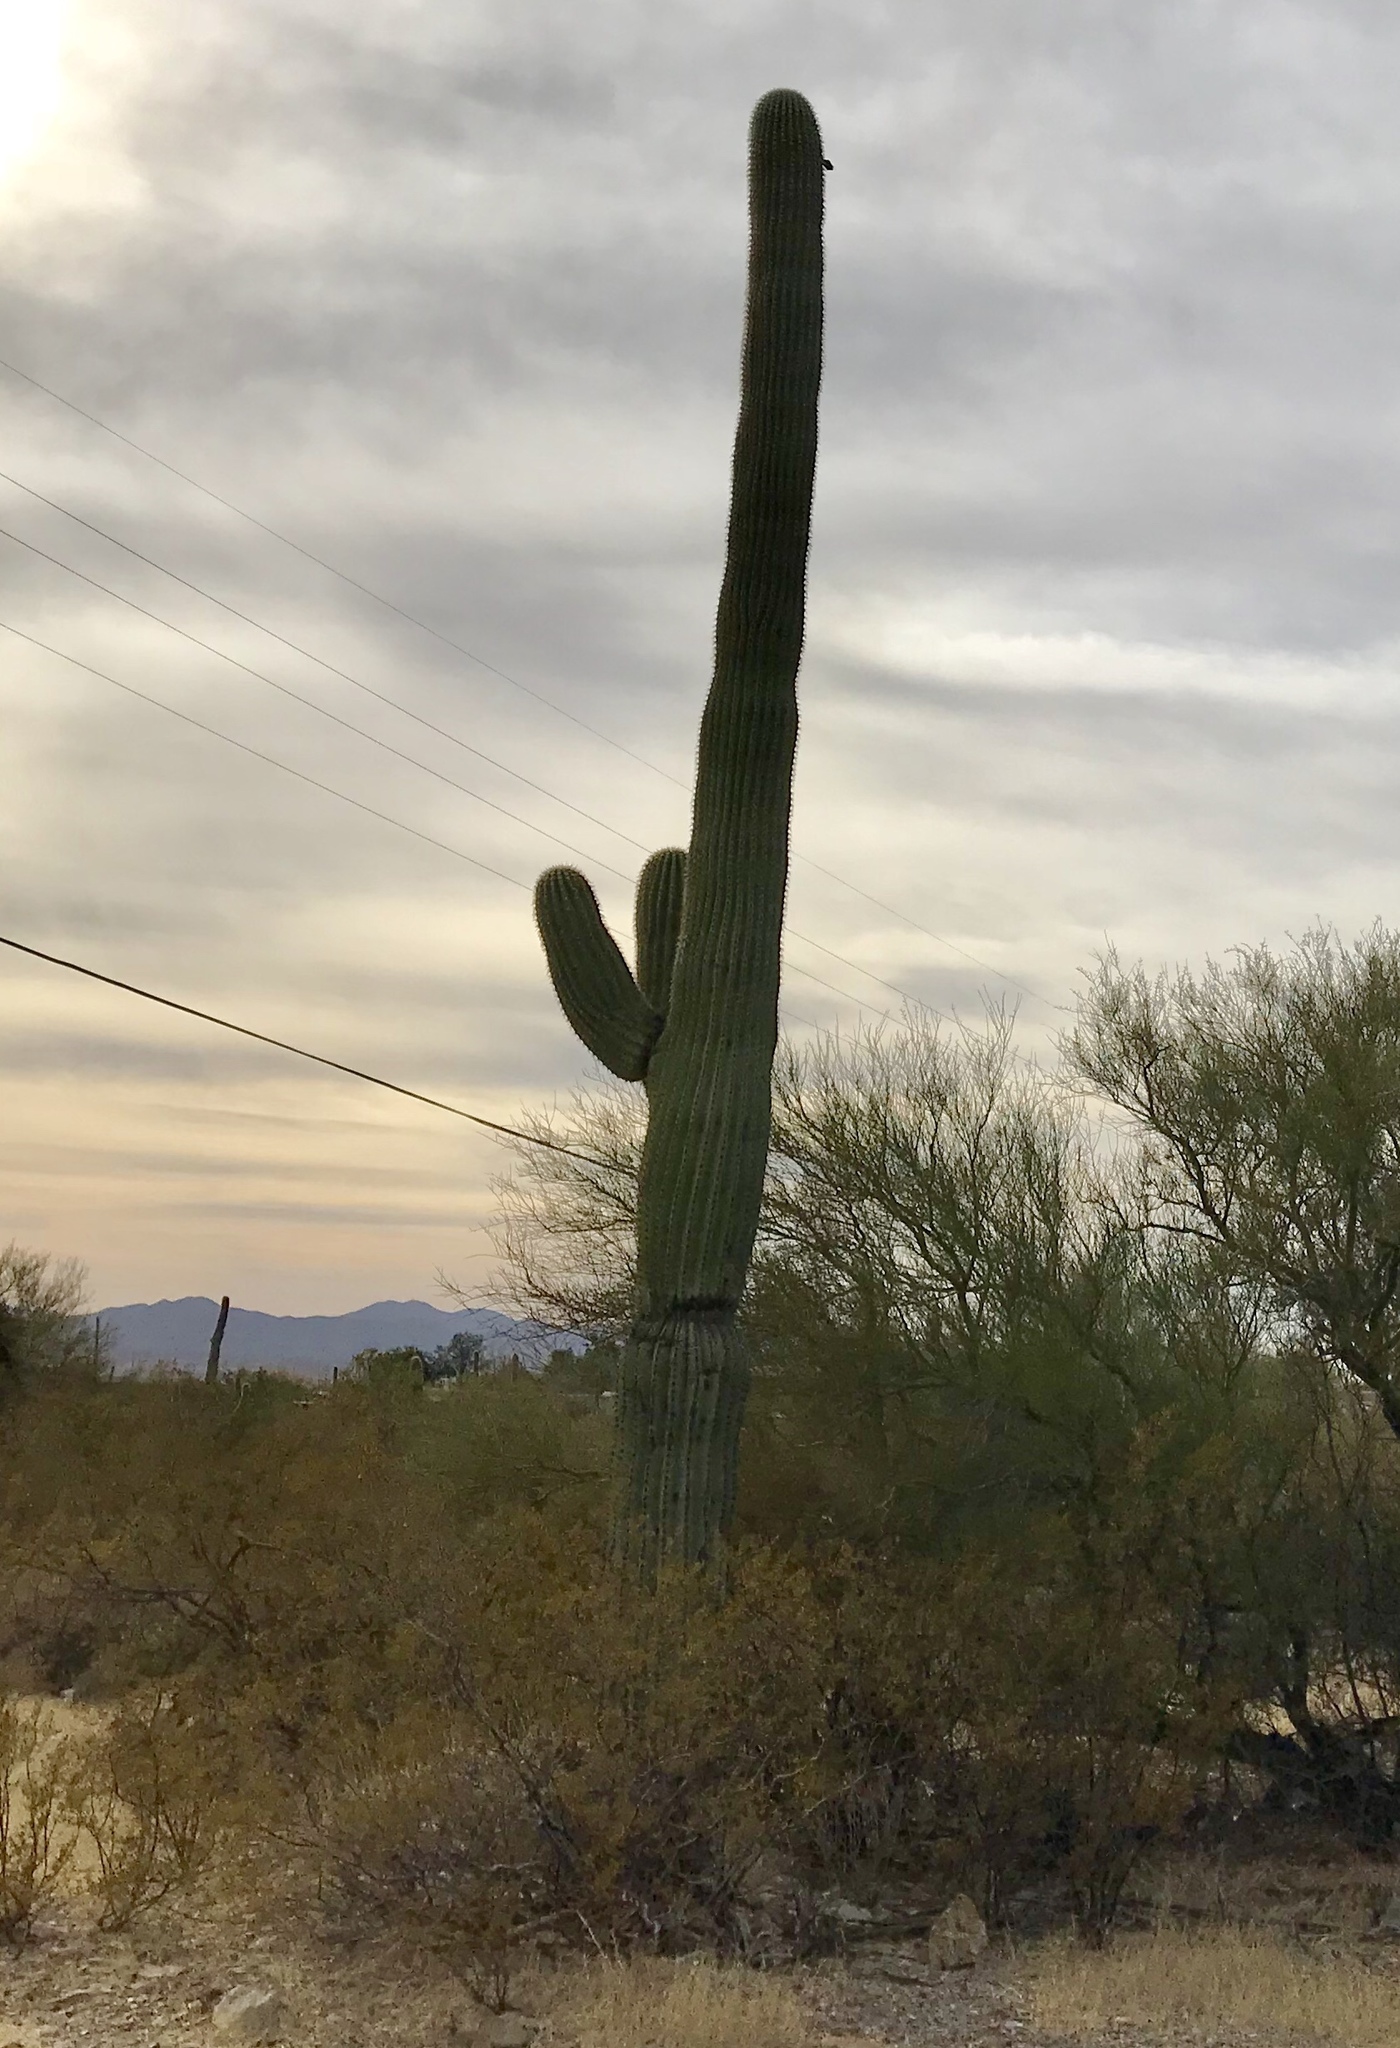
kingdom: Plantae
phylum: Tracheophyta
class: Magnoliopsida
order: Caryophyllales
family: Cactaceae
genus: Carnegiea
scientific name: Carnegiea gigantea
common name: Saguaro
